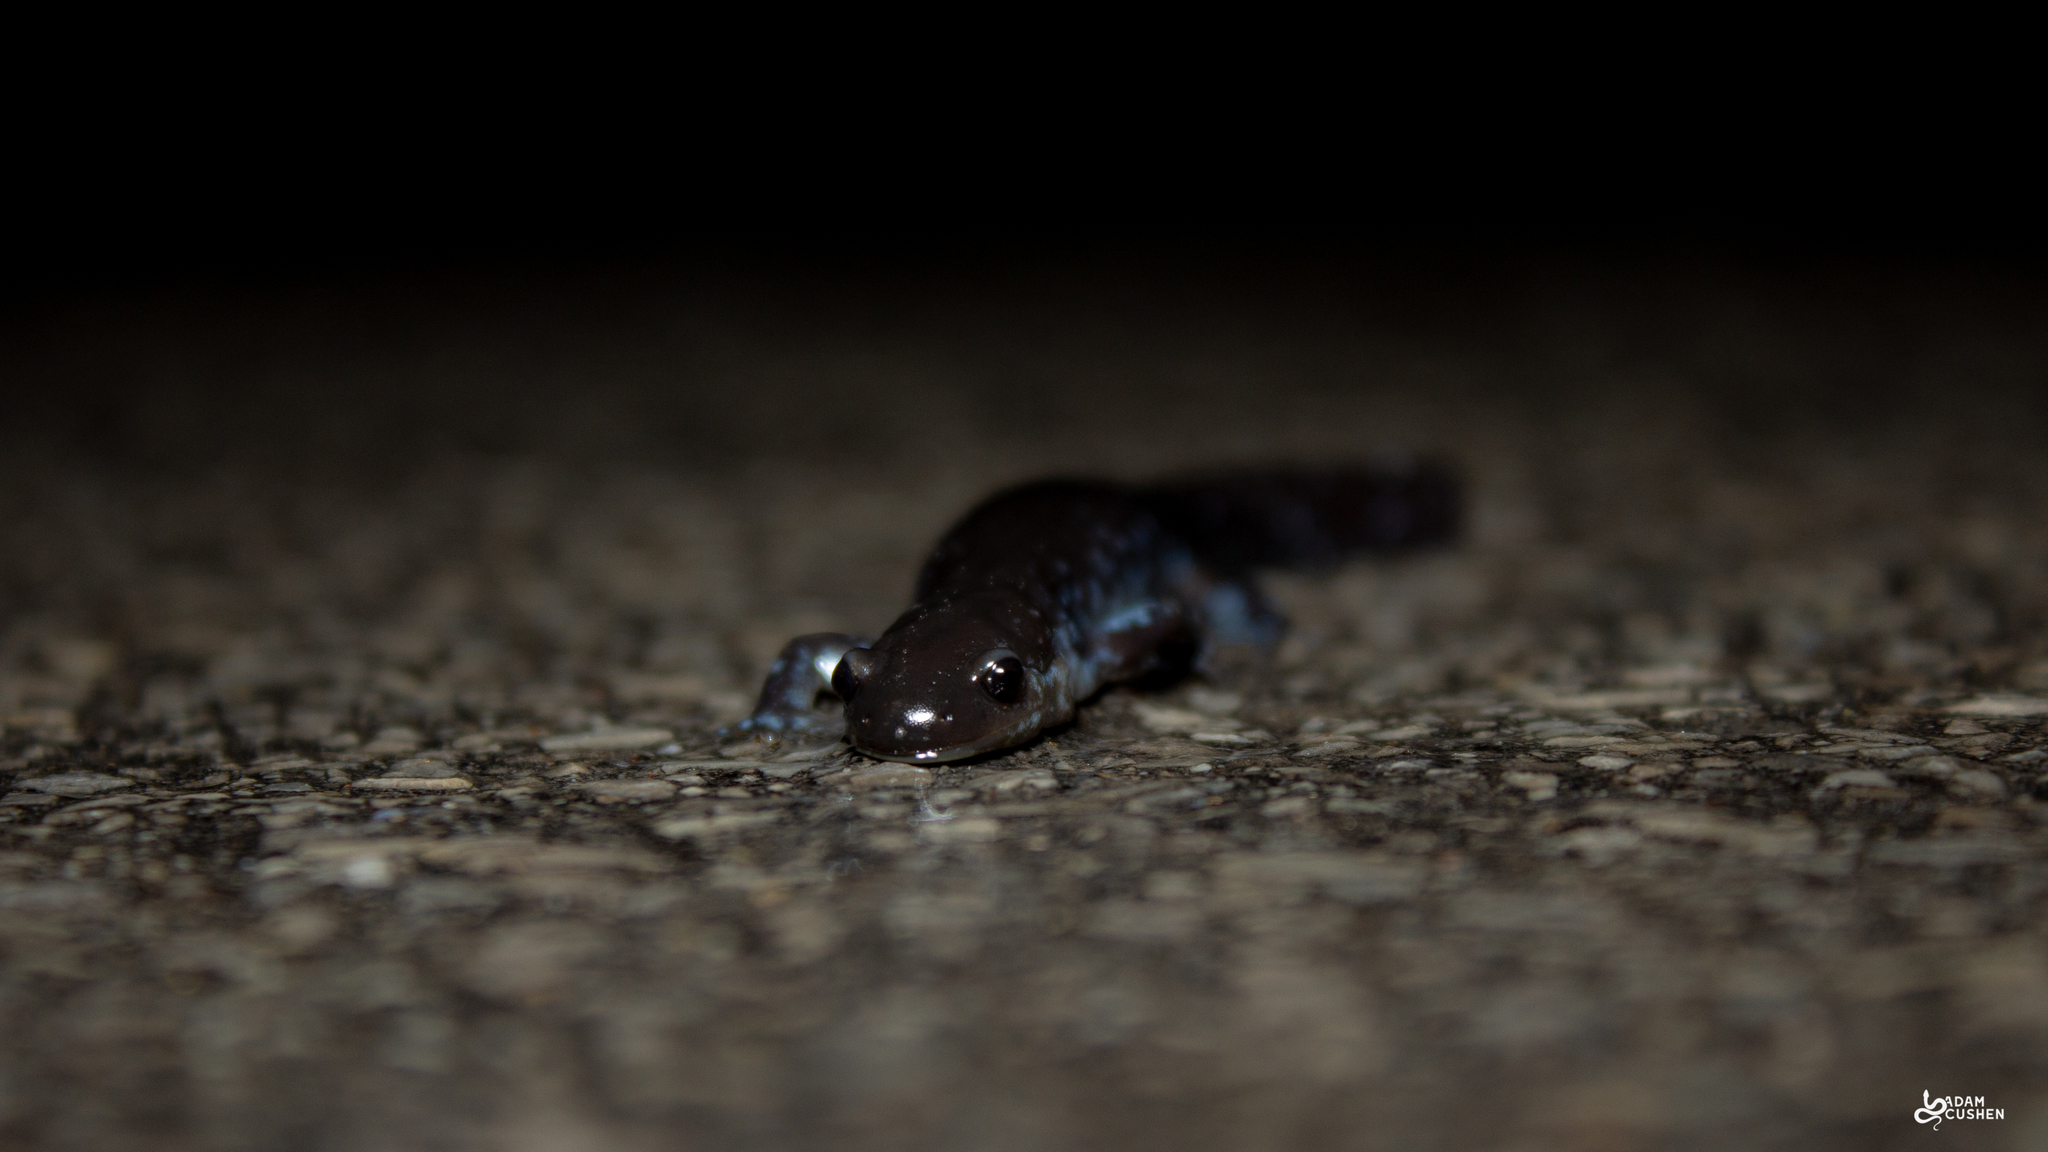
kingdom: Animalia
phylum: Chordata
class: Amphibia
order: Caudata
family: Ambystomatidae
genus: Ambystoma
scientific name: Ambystoma laterale
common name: Blue-spotted salamander
